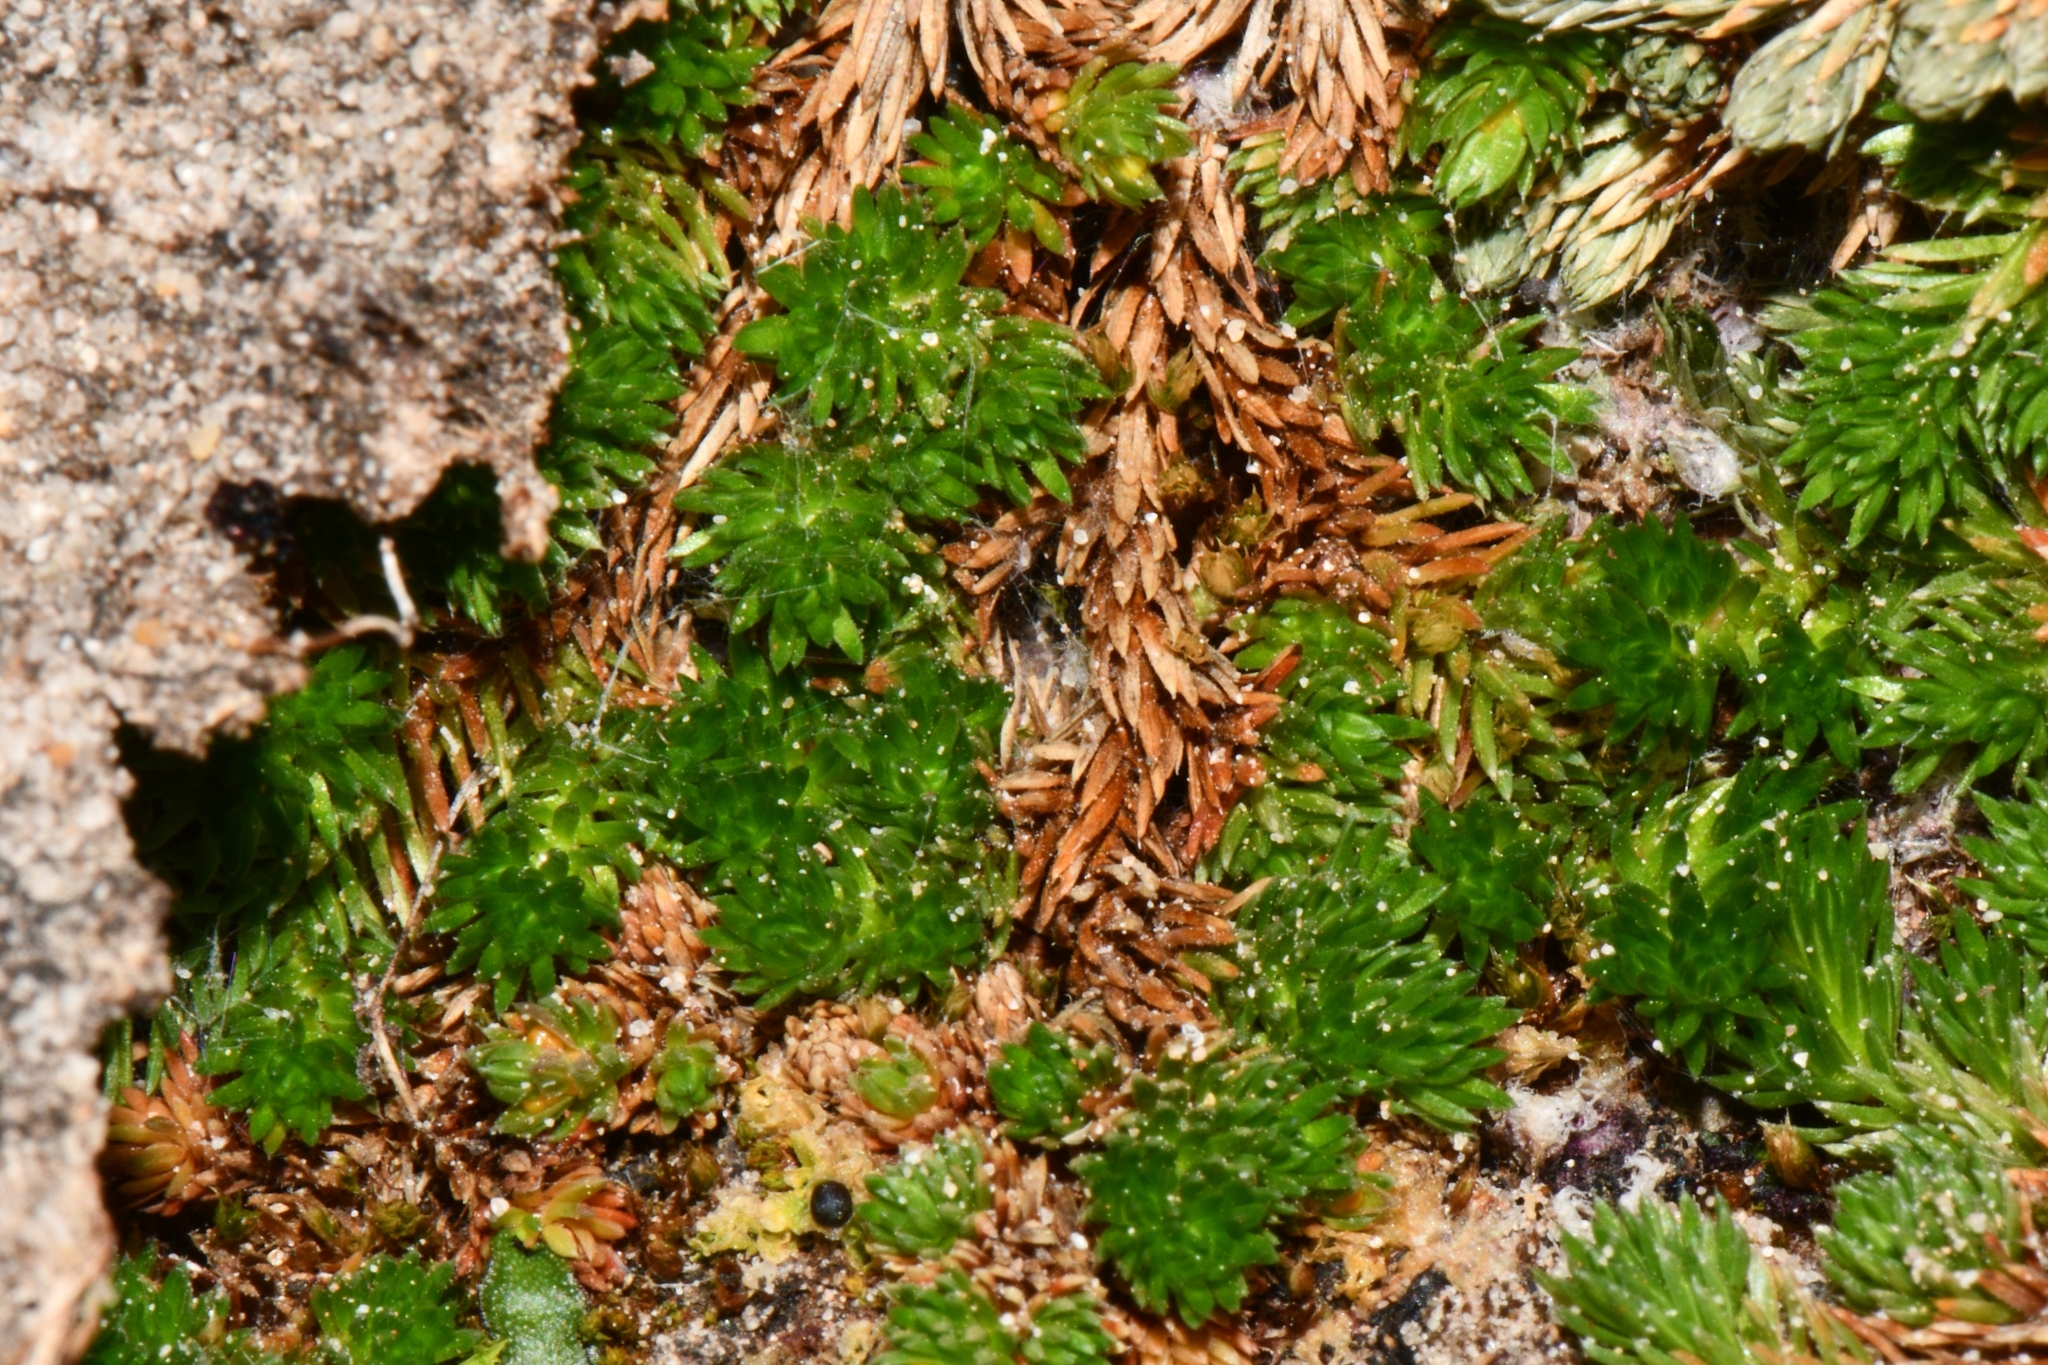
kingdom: Plantae
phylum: Tracheophyta
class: Lycopodiopsida
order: Selaginellales
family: Selaginellaceae
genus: Selaginella
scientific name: Selaginella utahensis
